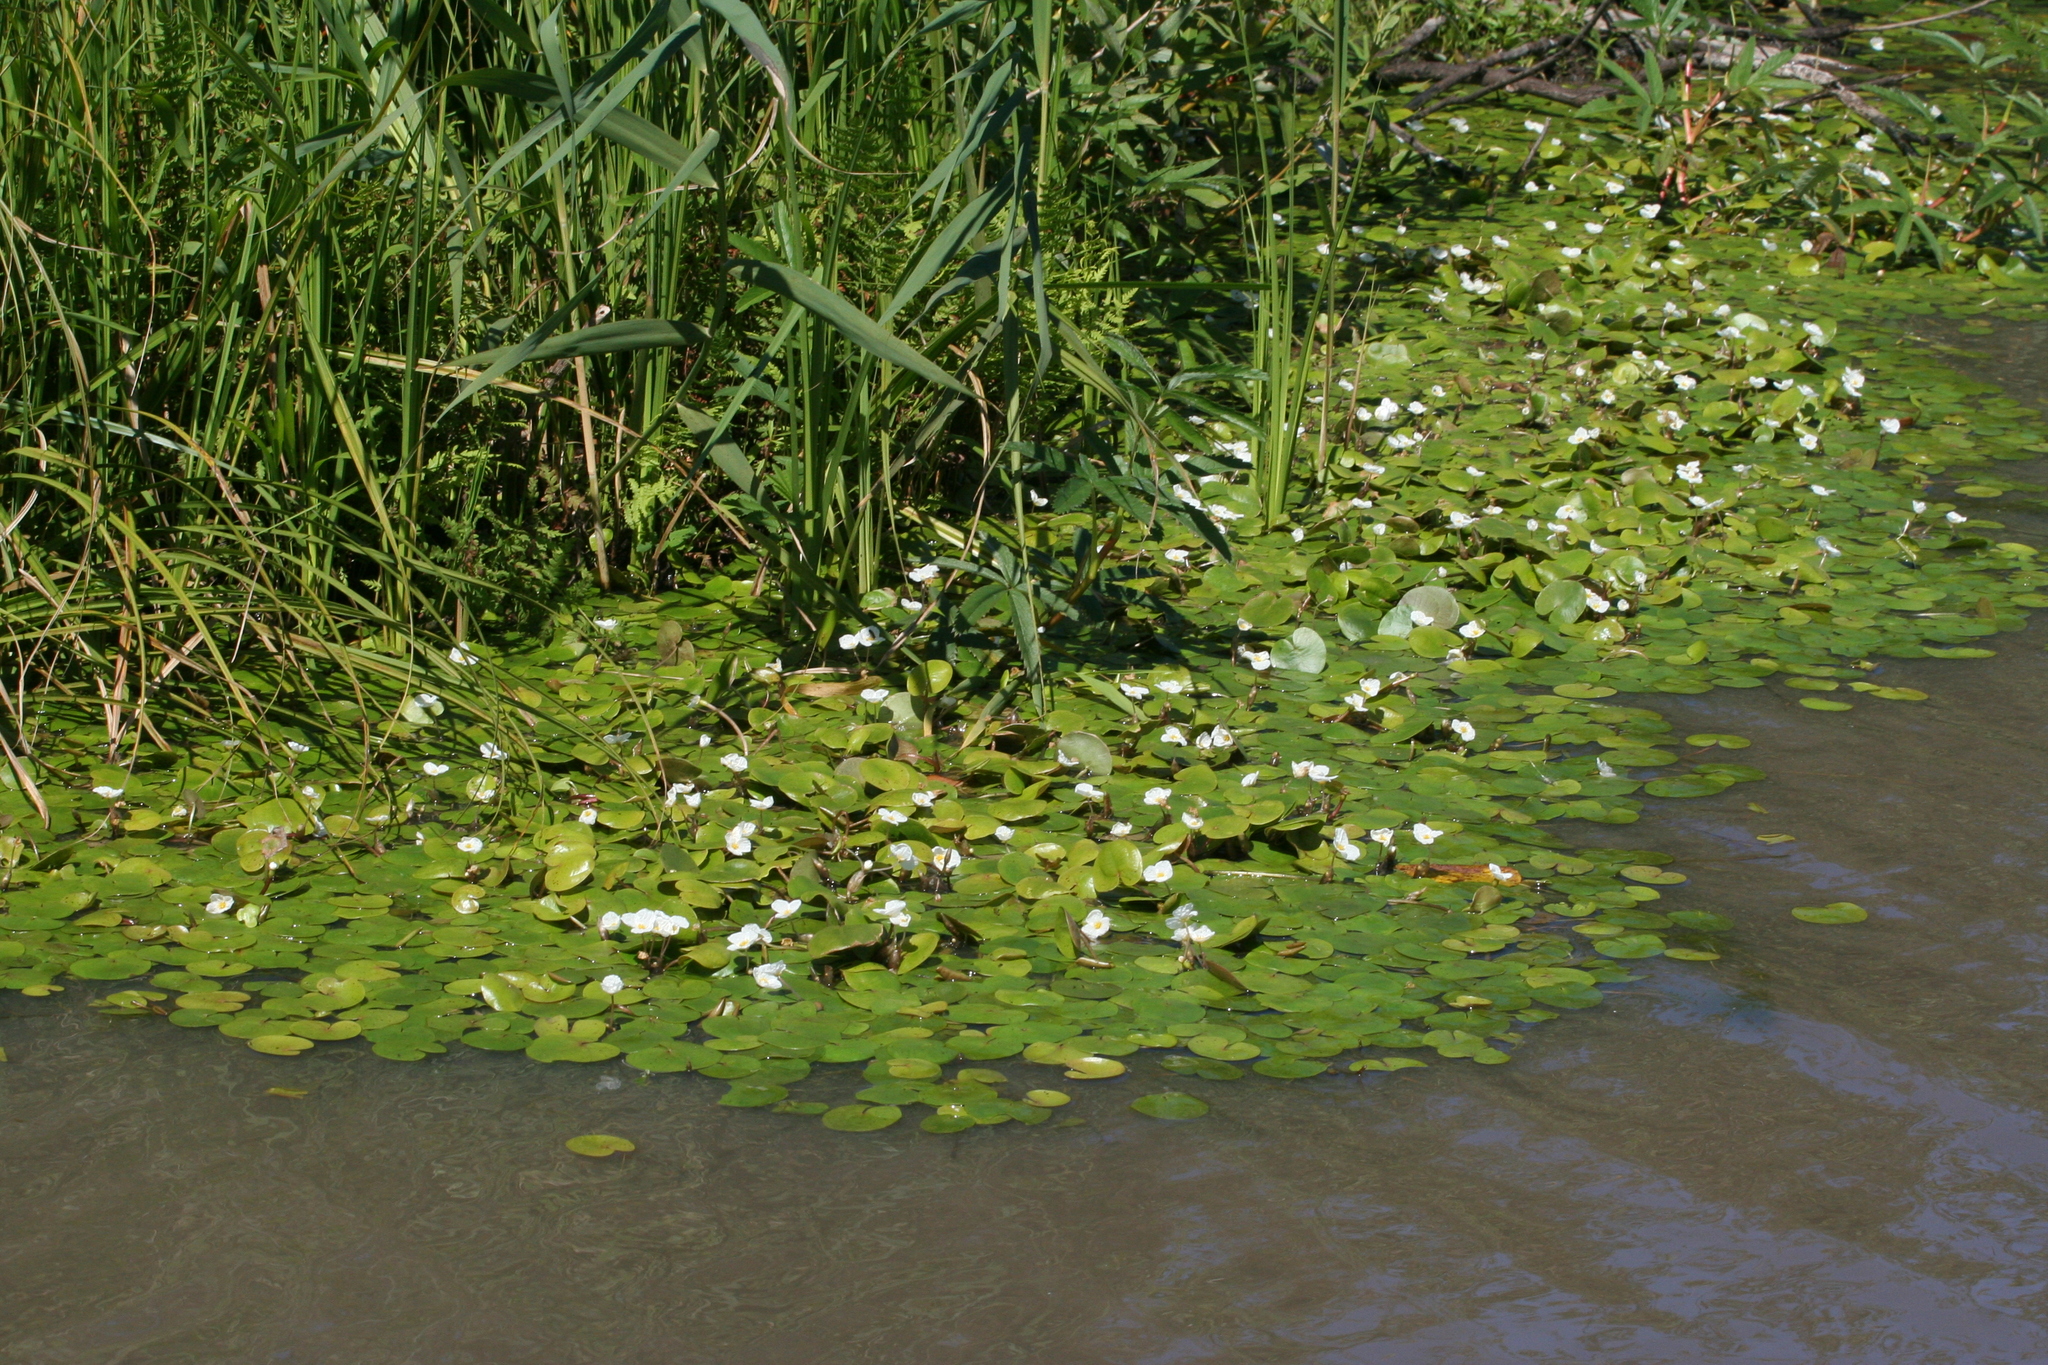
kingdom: Plantae
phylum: Tracheophyta
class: Liliopsida
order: Poales
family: Poaceae
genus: Phragmites
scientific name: Phragmites australis
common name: Common reed
